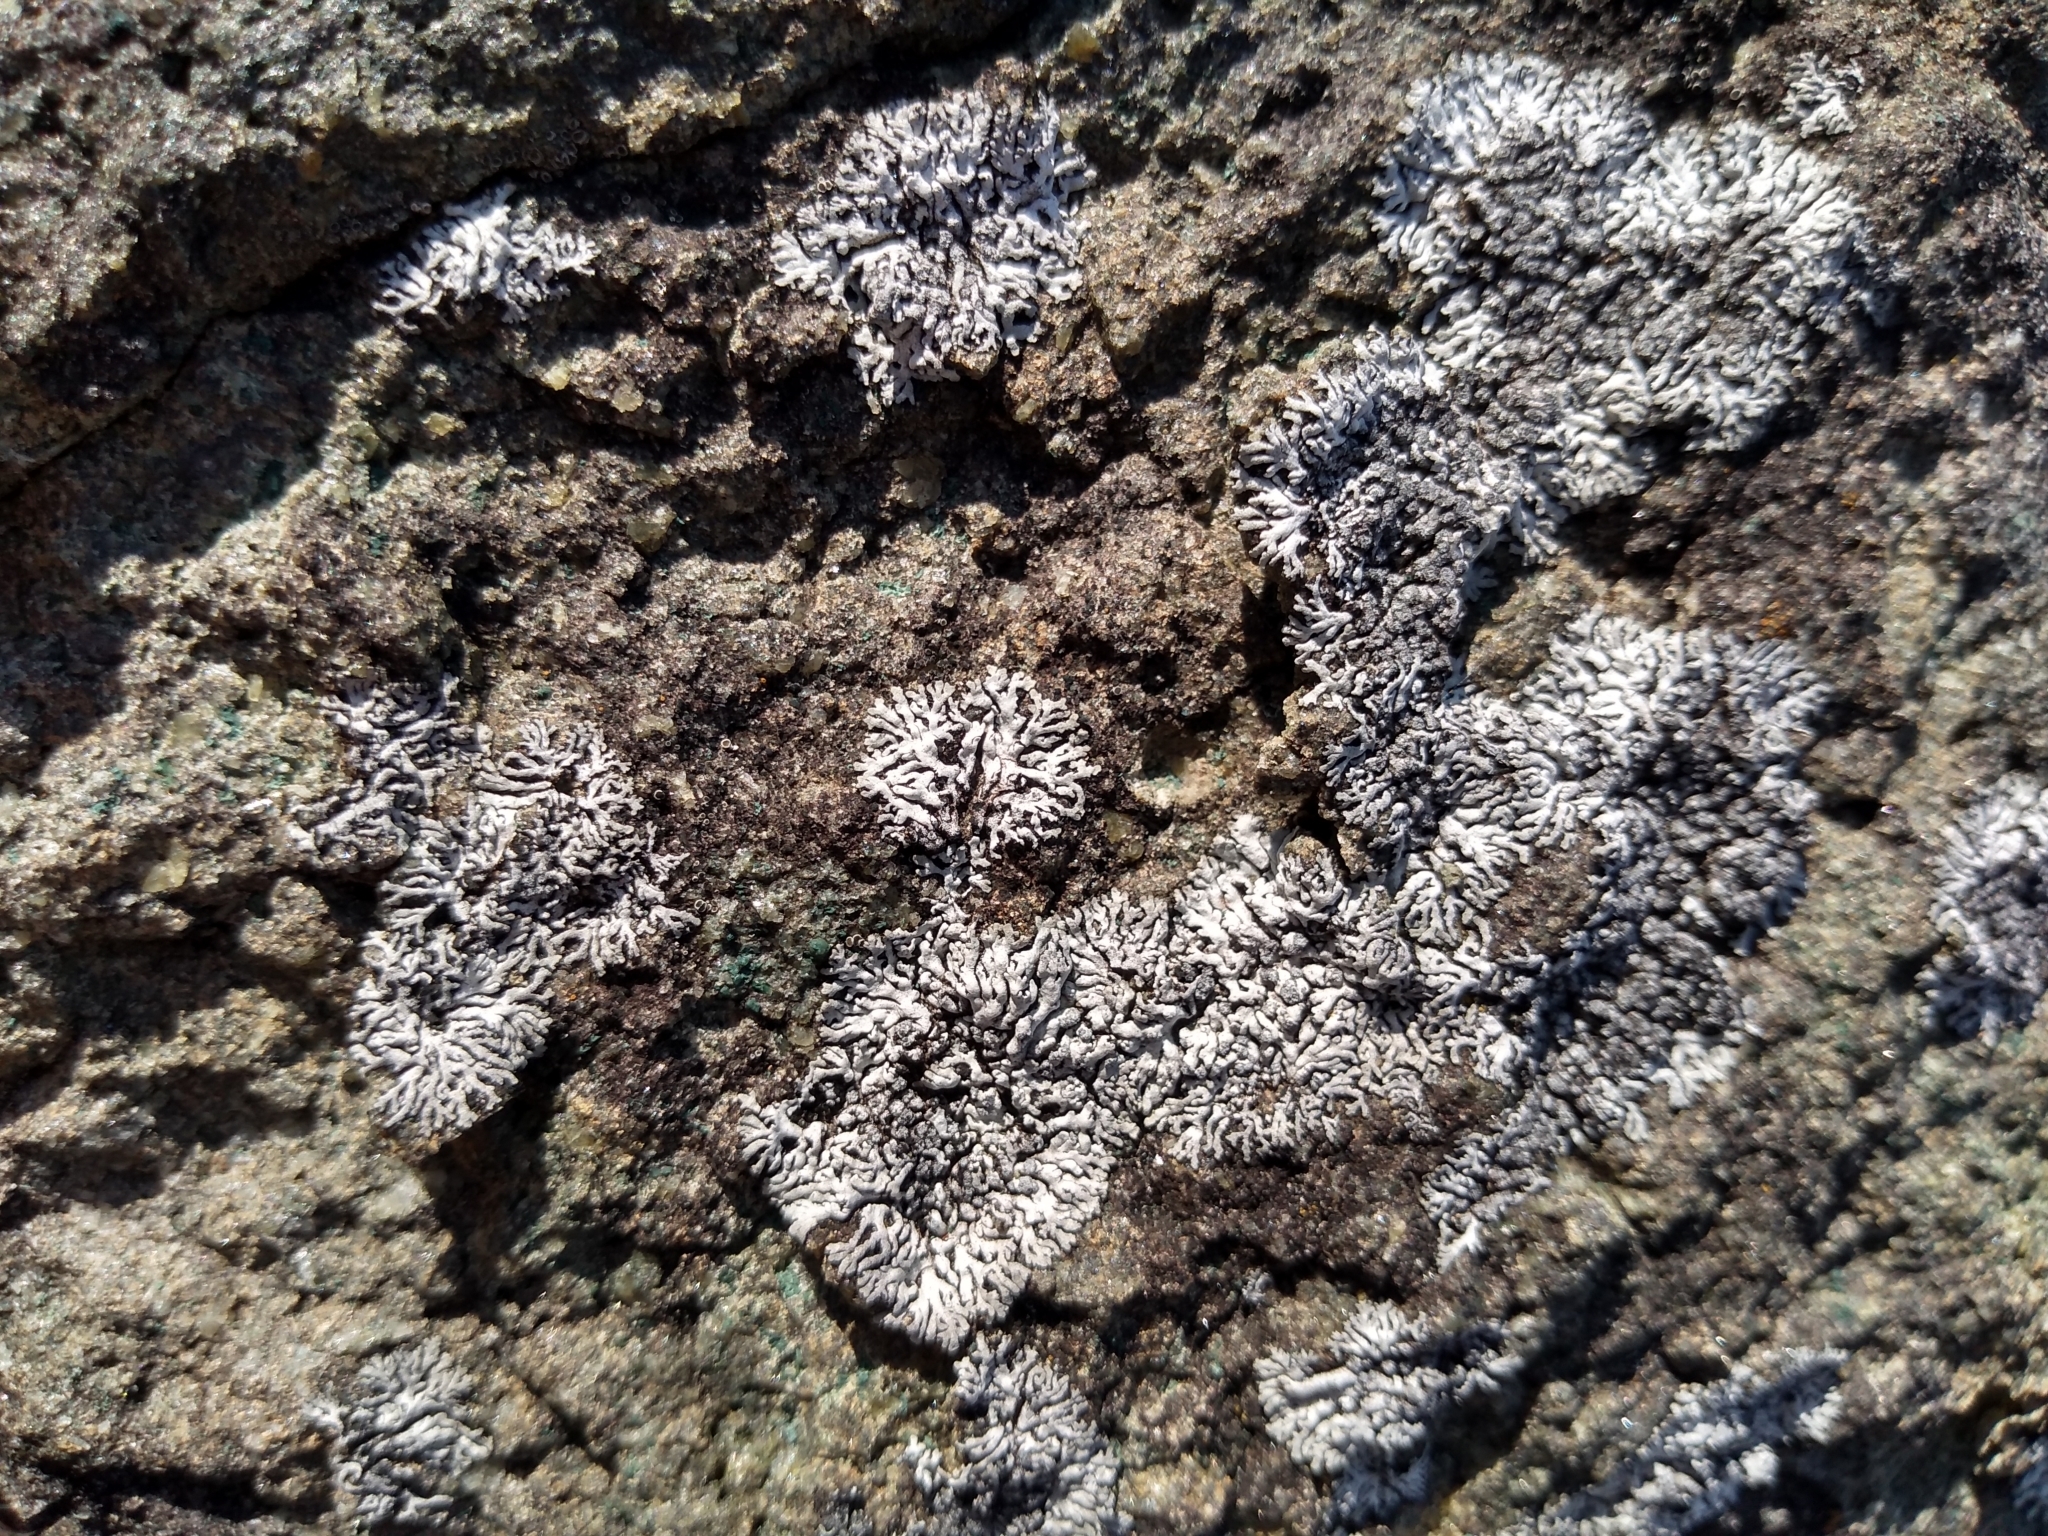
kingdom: Fungi
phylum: Ascomycota
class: Lecanoromycetes
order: Caliciales
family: Physciaceae
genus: Physcia
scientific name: Physcia caesia
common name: Blue-gray rosette lichen
